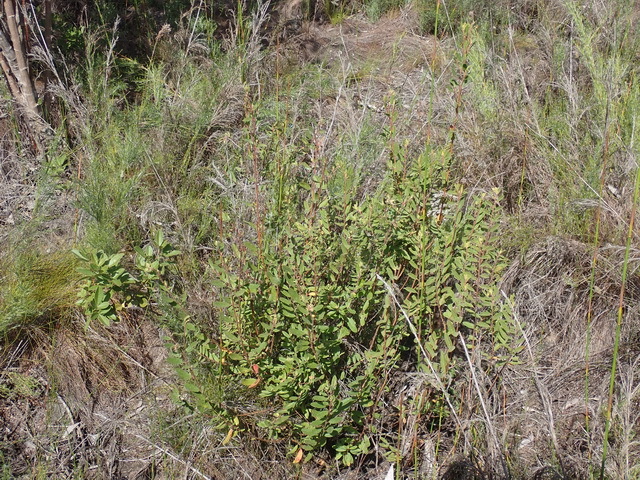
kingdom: Plantae
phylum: Tracheophyta
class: Magnoliopsida
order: Malvales
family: Malvaceae
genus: Hermannia
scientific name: Hermannia salviifolia
